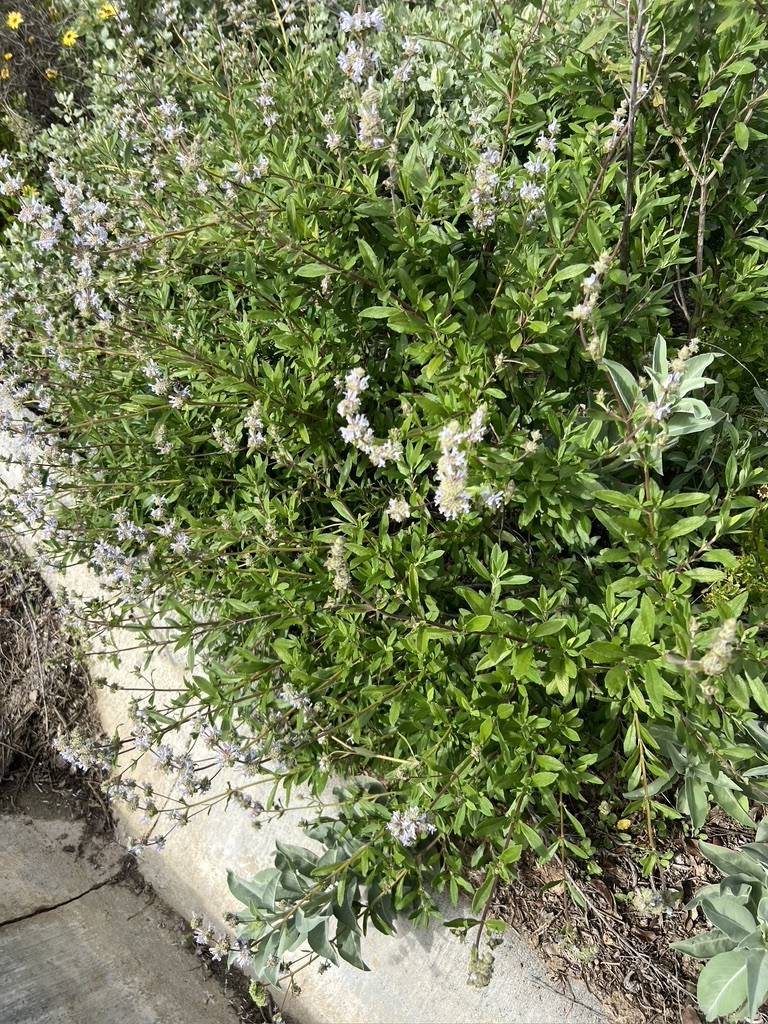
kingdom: Plantae
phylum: Tracheophyta
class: Magnoliopsida
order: Lamiales
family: Lamiaceae
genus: Salvia
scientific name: Salvia mellifera
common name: Black sage
